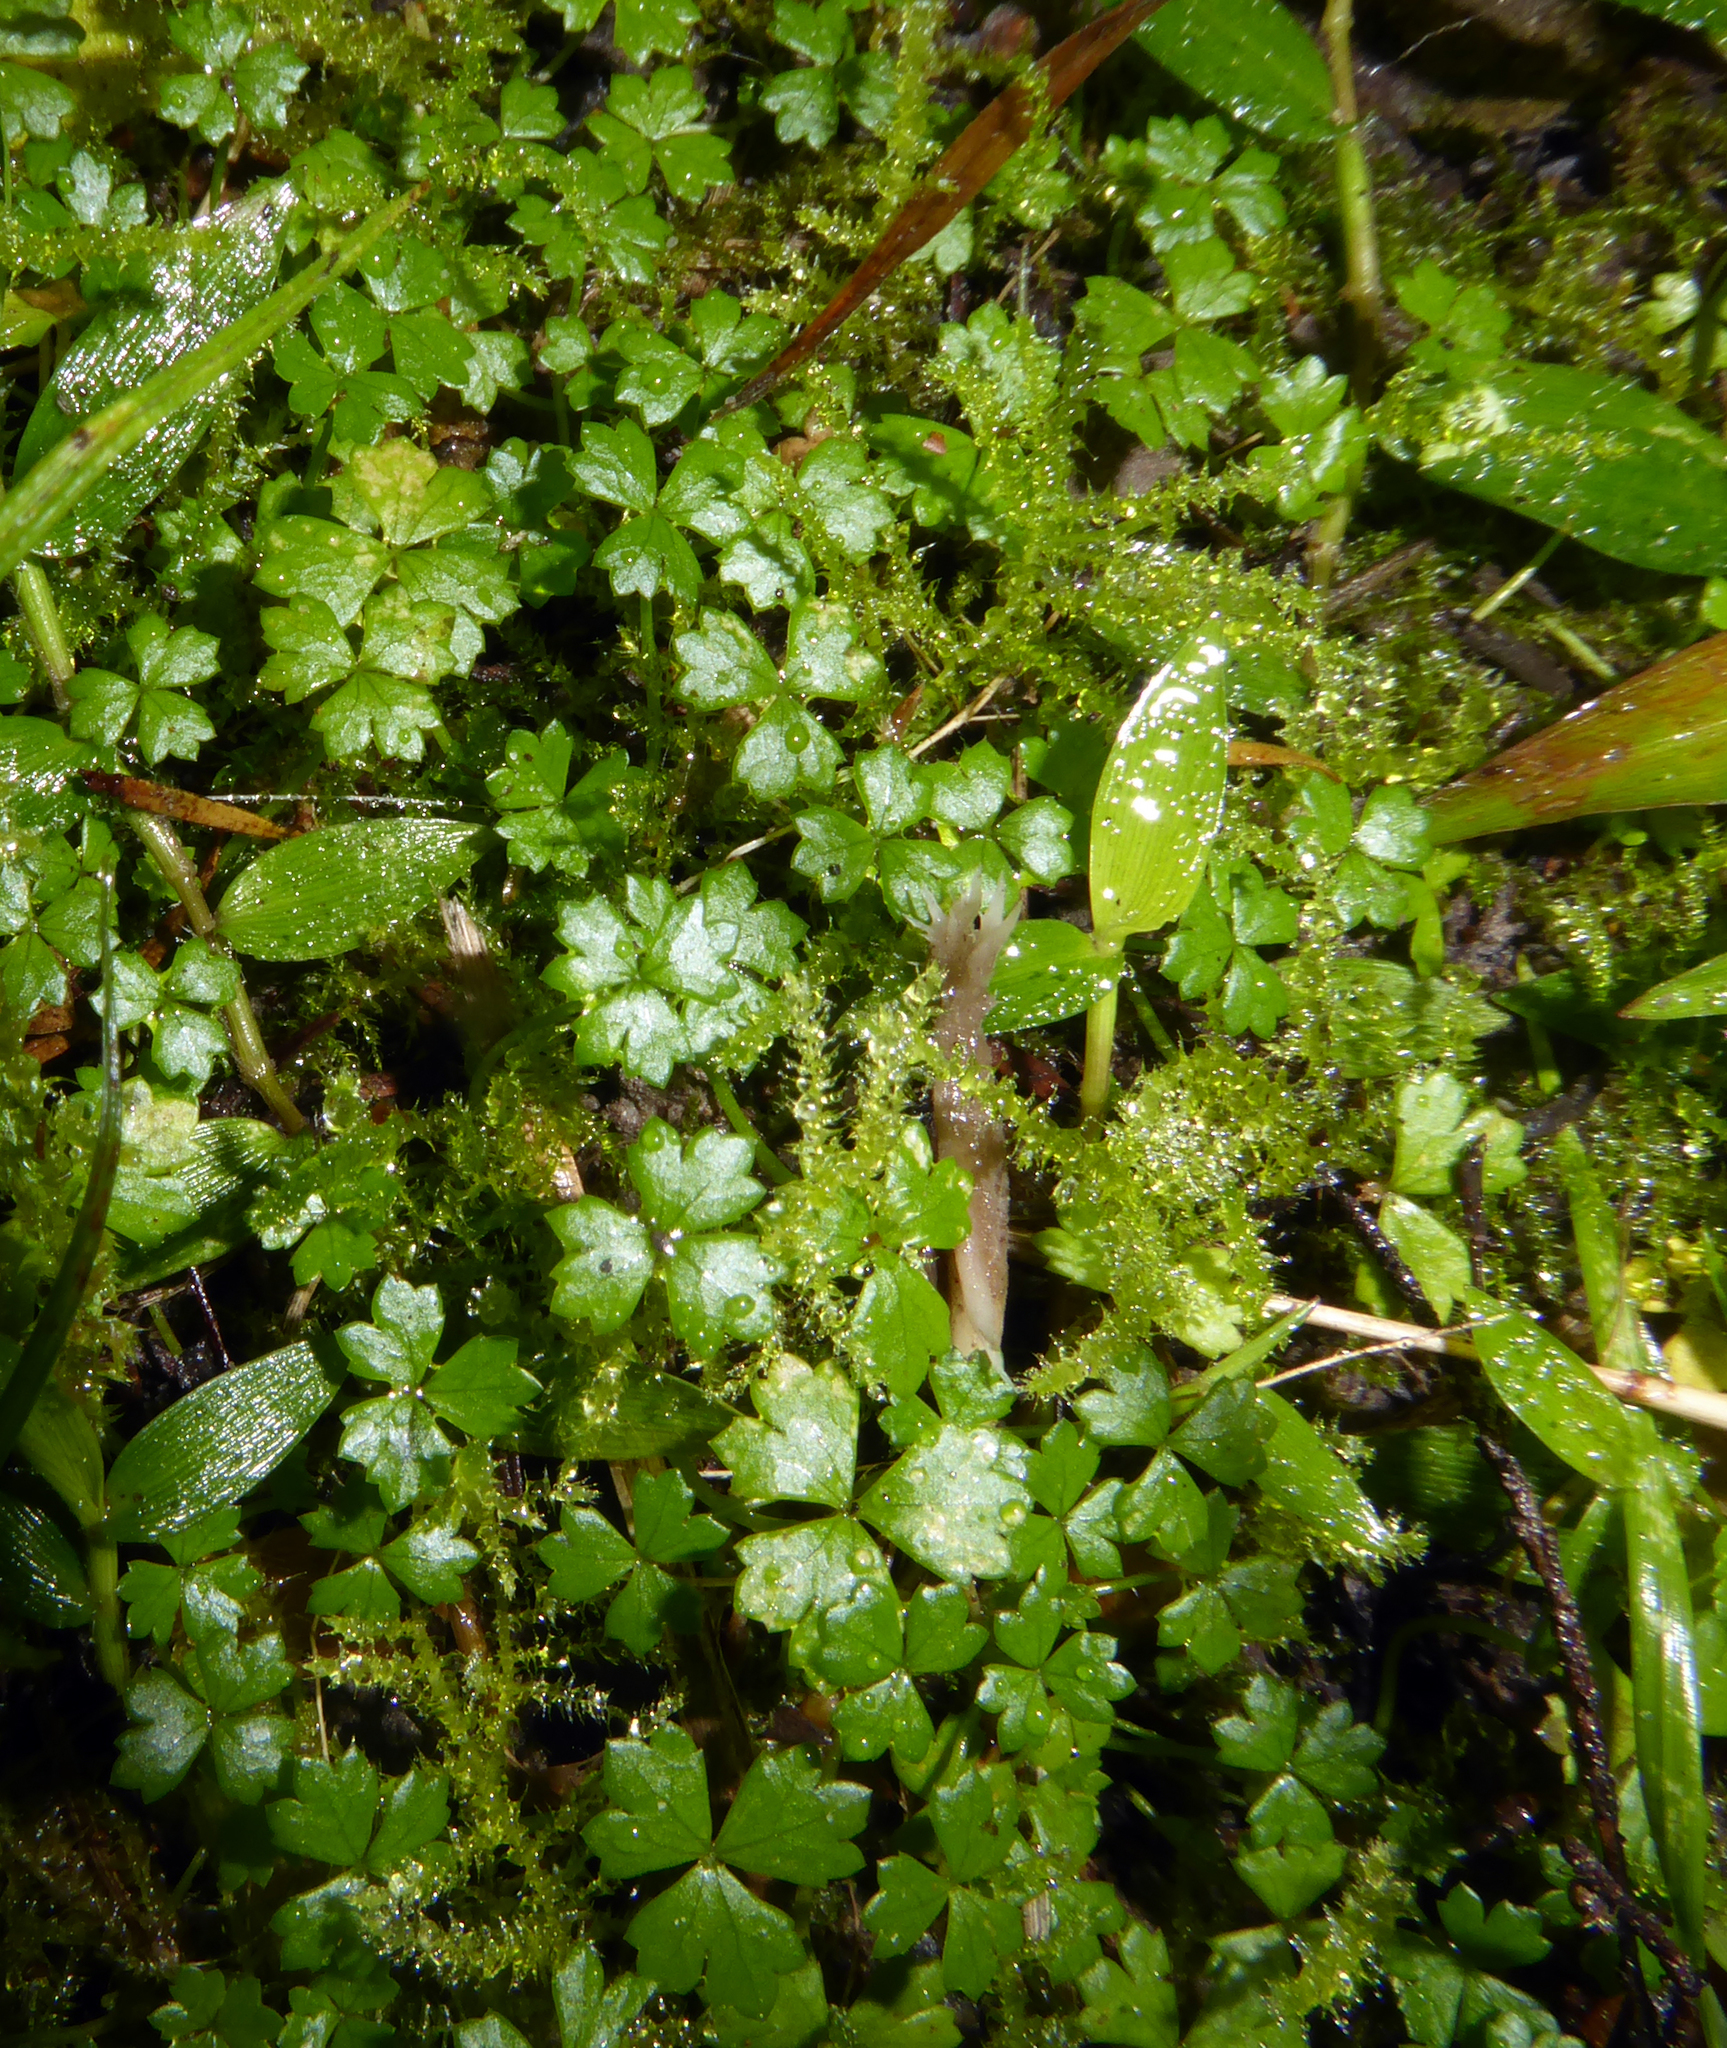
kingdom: Plantae
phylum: Tracheophyta
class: Magnoliopsida
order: Apiales
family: Araliaceae
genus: Hydrocotyle
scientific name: Hydrocotyle tripartita
